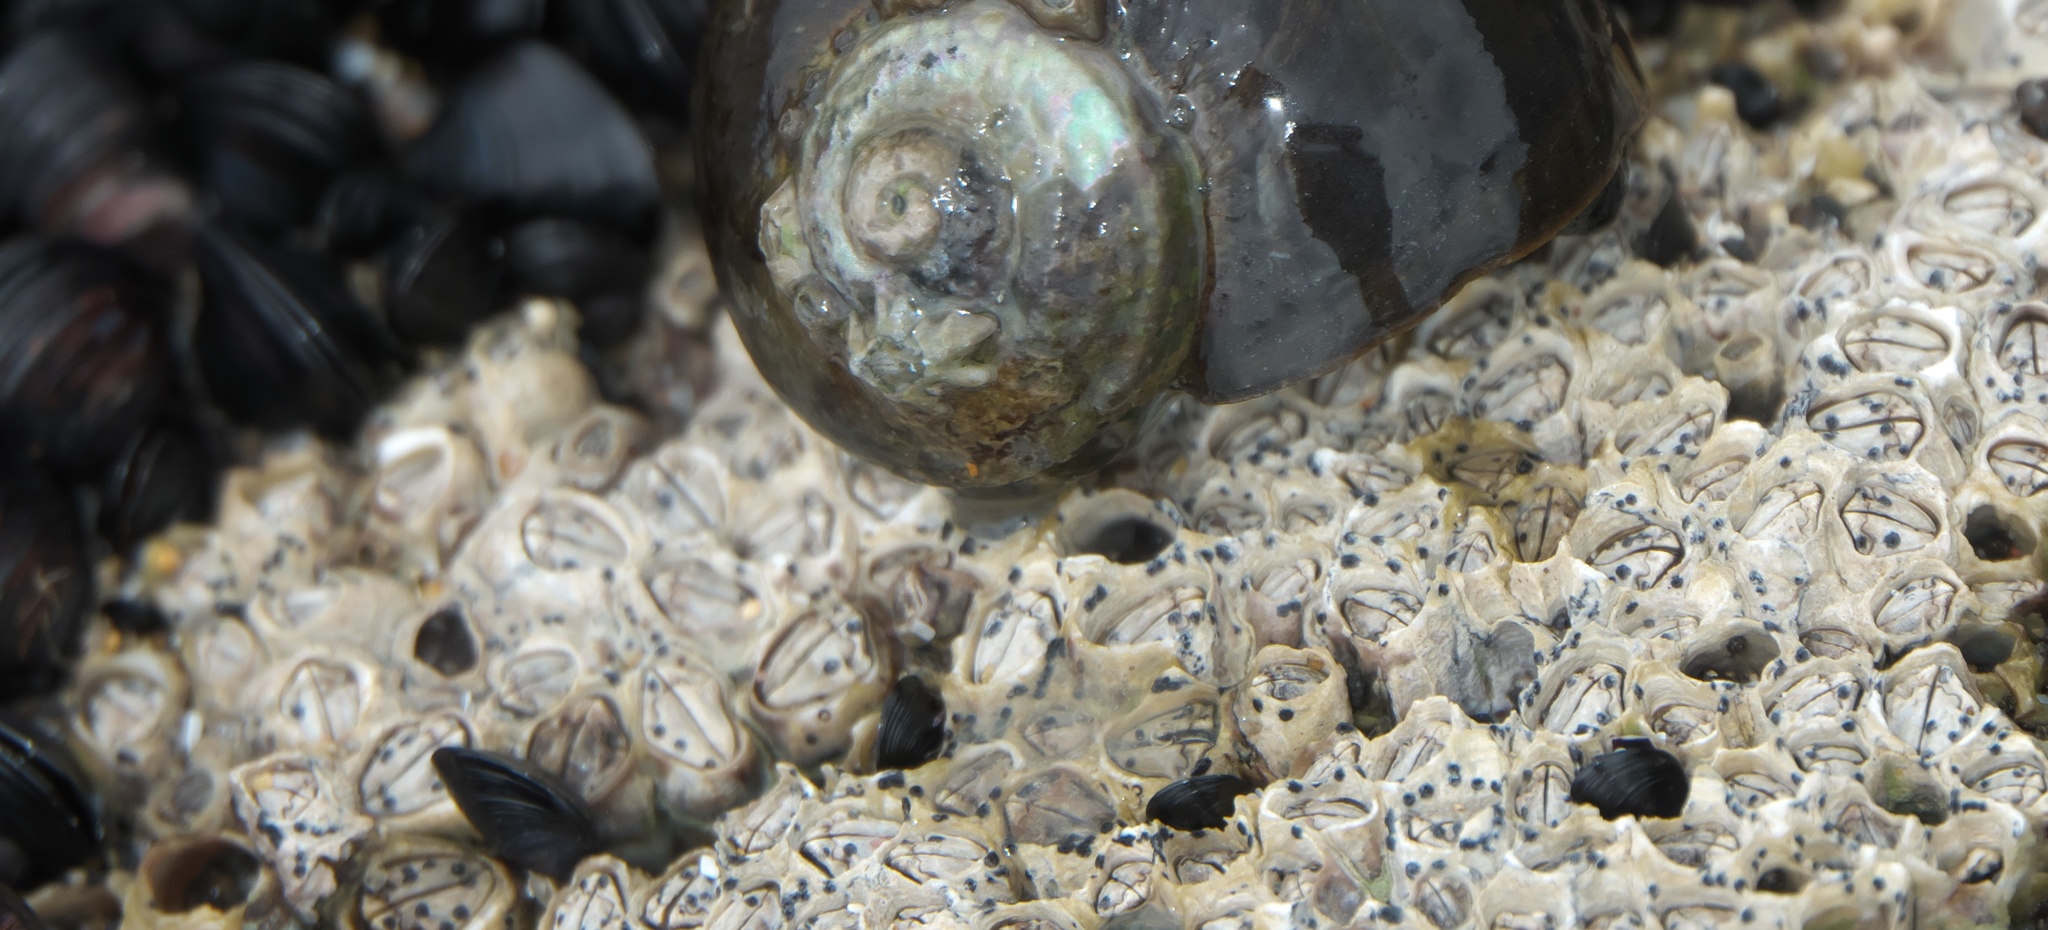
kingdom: Animalia
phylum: Arthropoda
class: Maxillopoda
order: Sessilia
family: Chthamalidae
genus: Chamaesipho
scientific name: Chamaesipho columna
